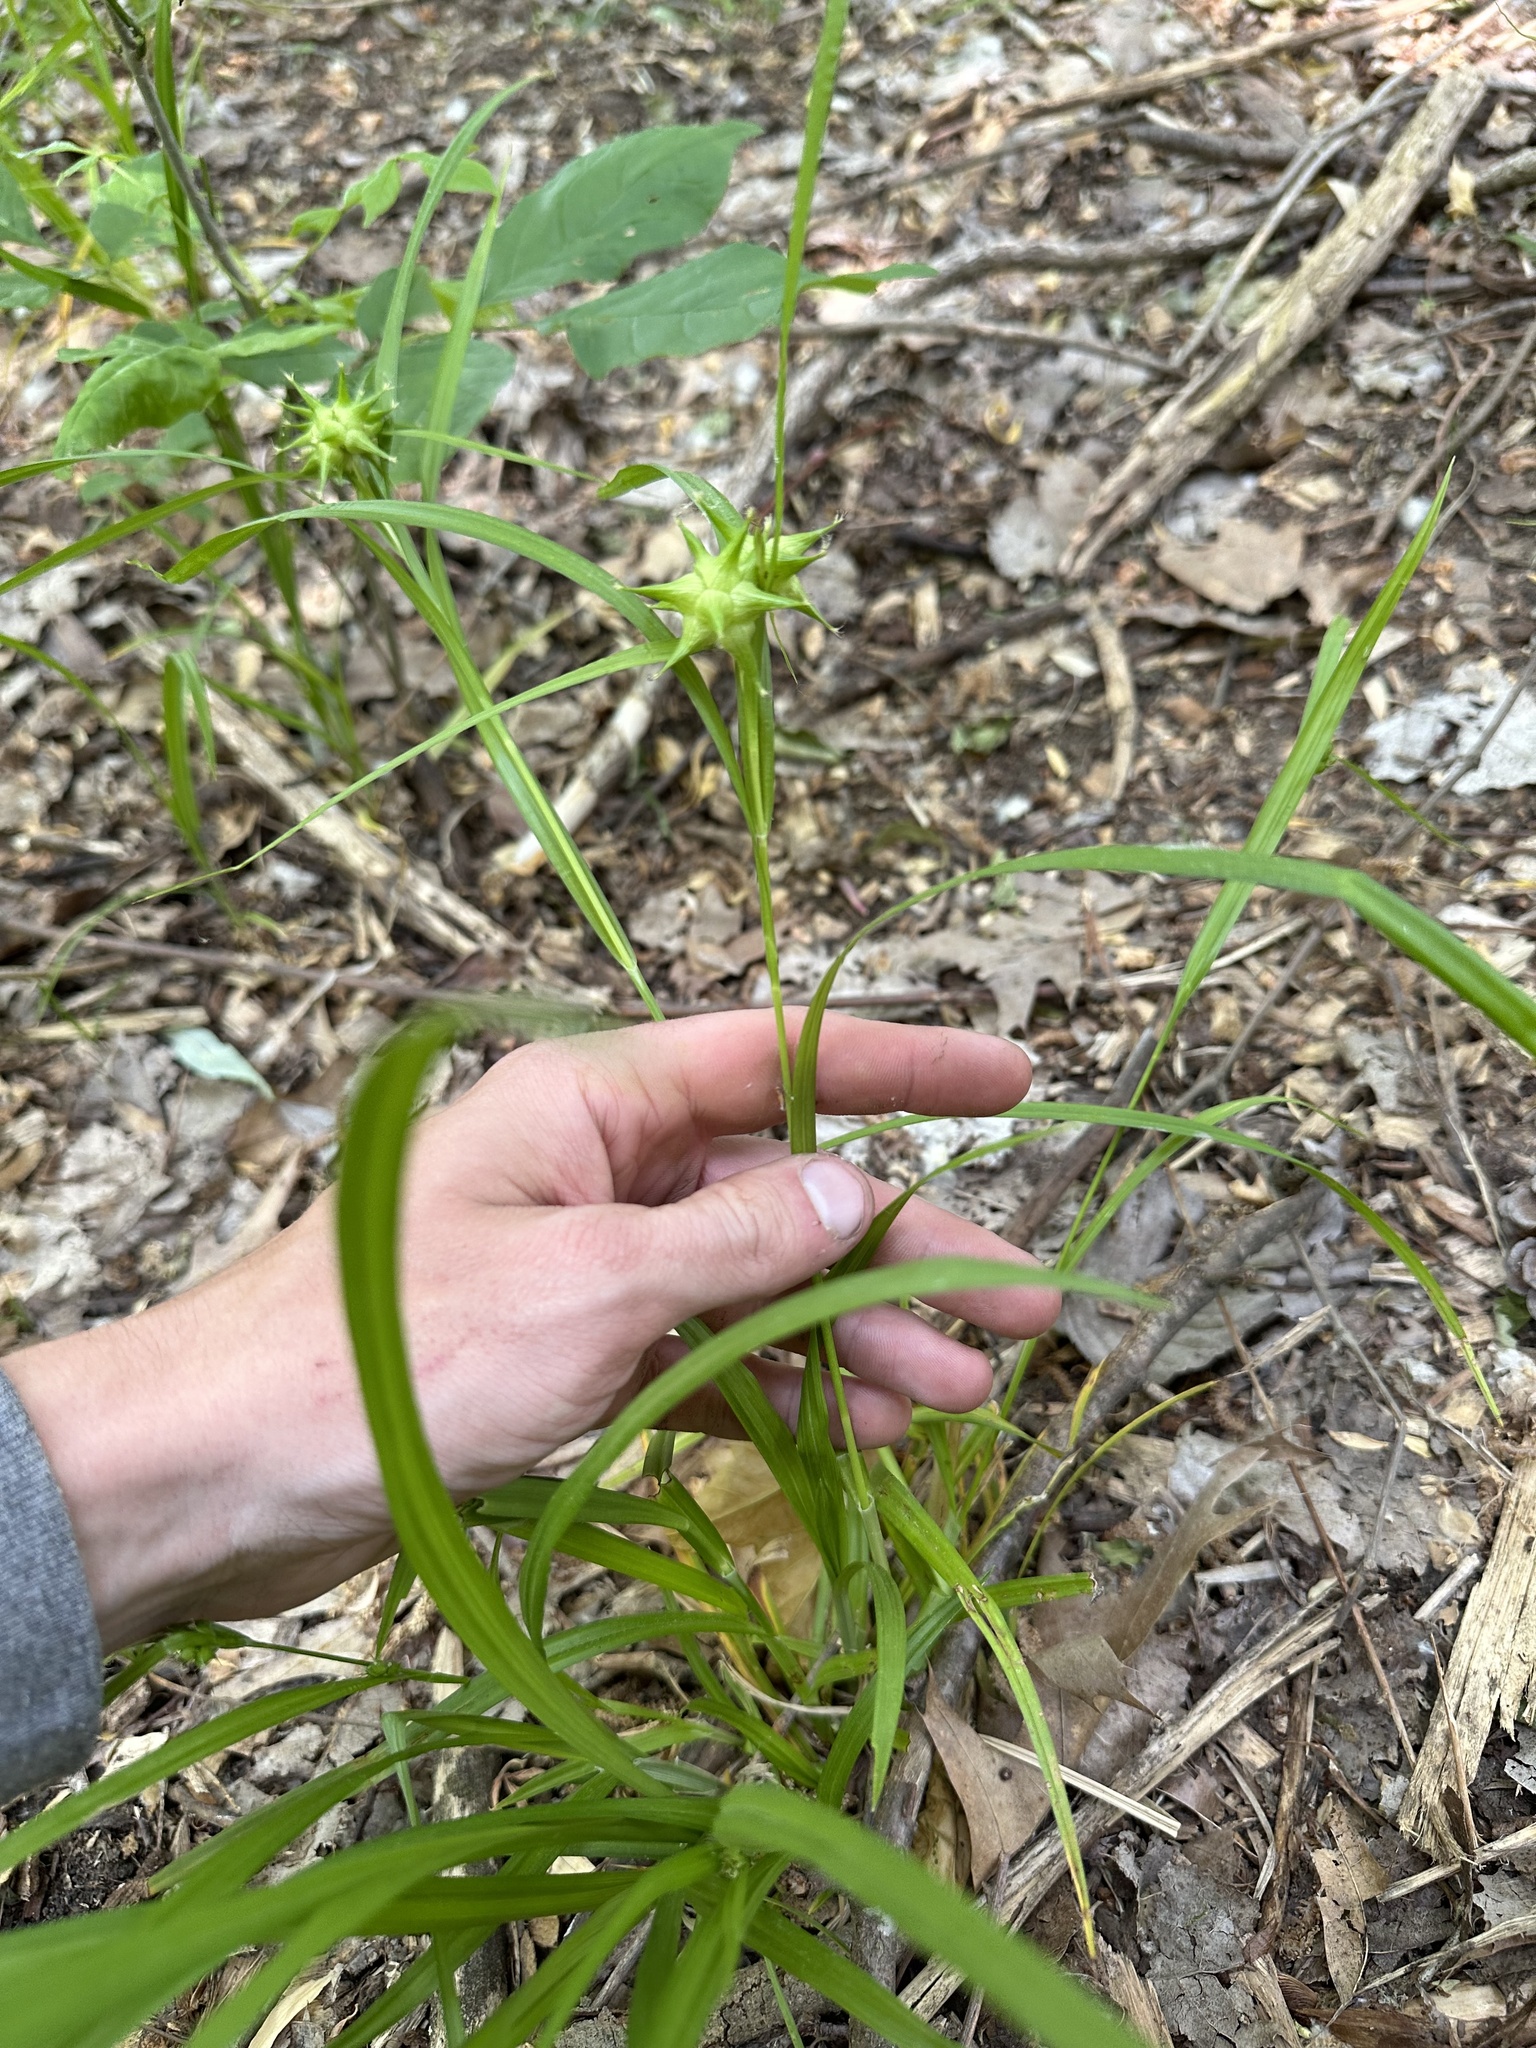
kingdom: Plantae
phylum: Tracheophyta
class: Liliopsida
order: Poales
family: Cyperaceae
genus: Carex
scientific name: Carex grayi
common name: Asa gray's sedge
